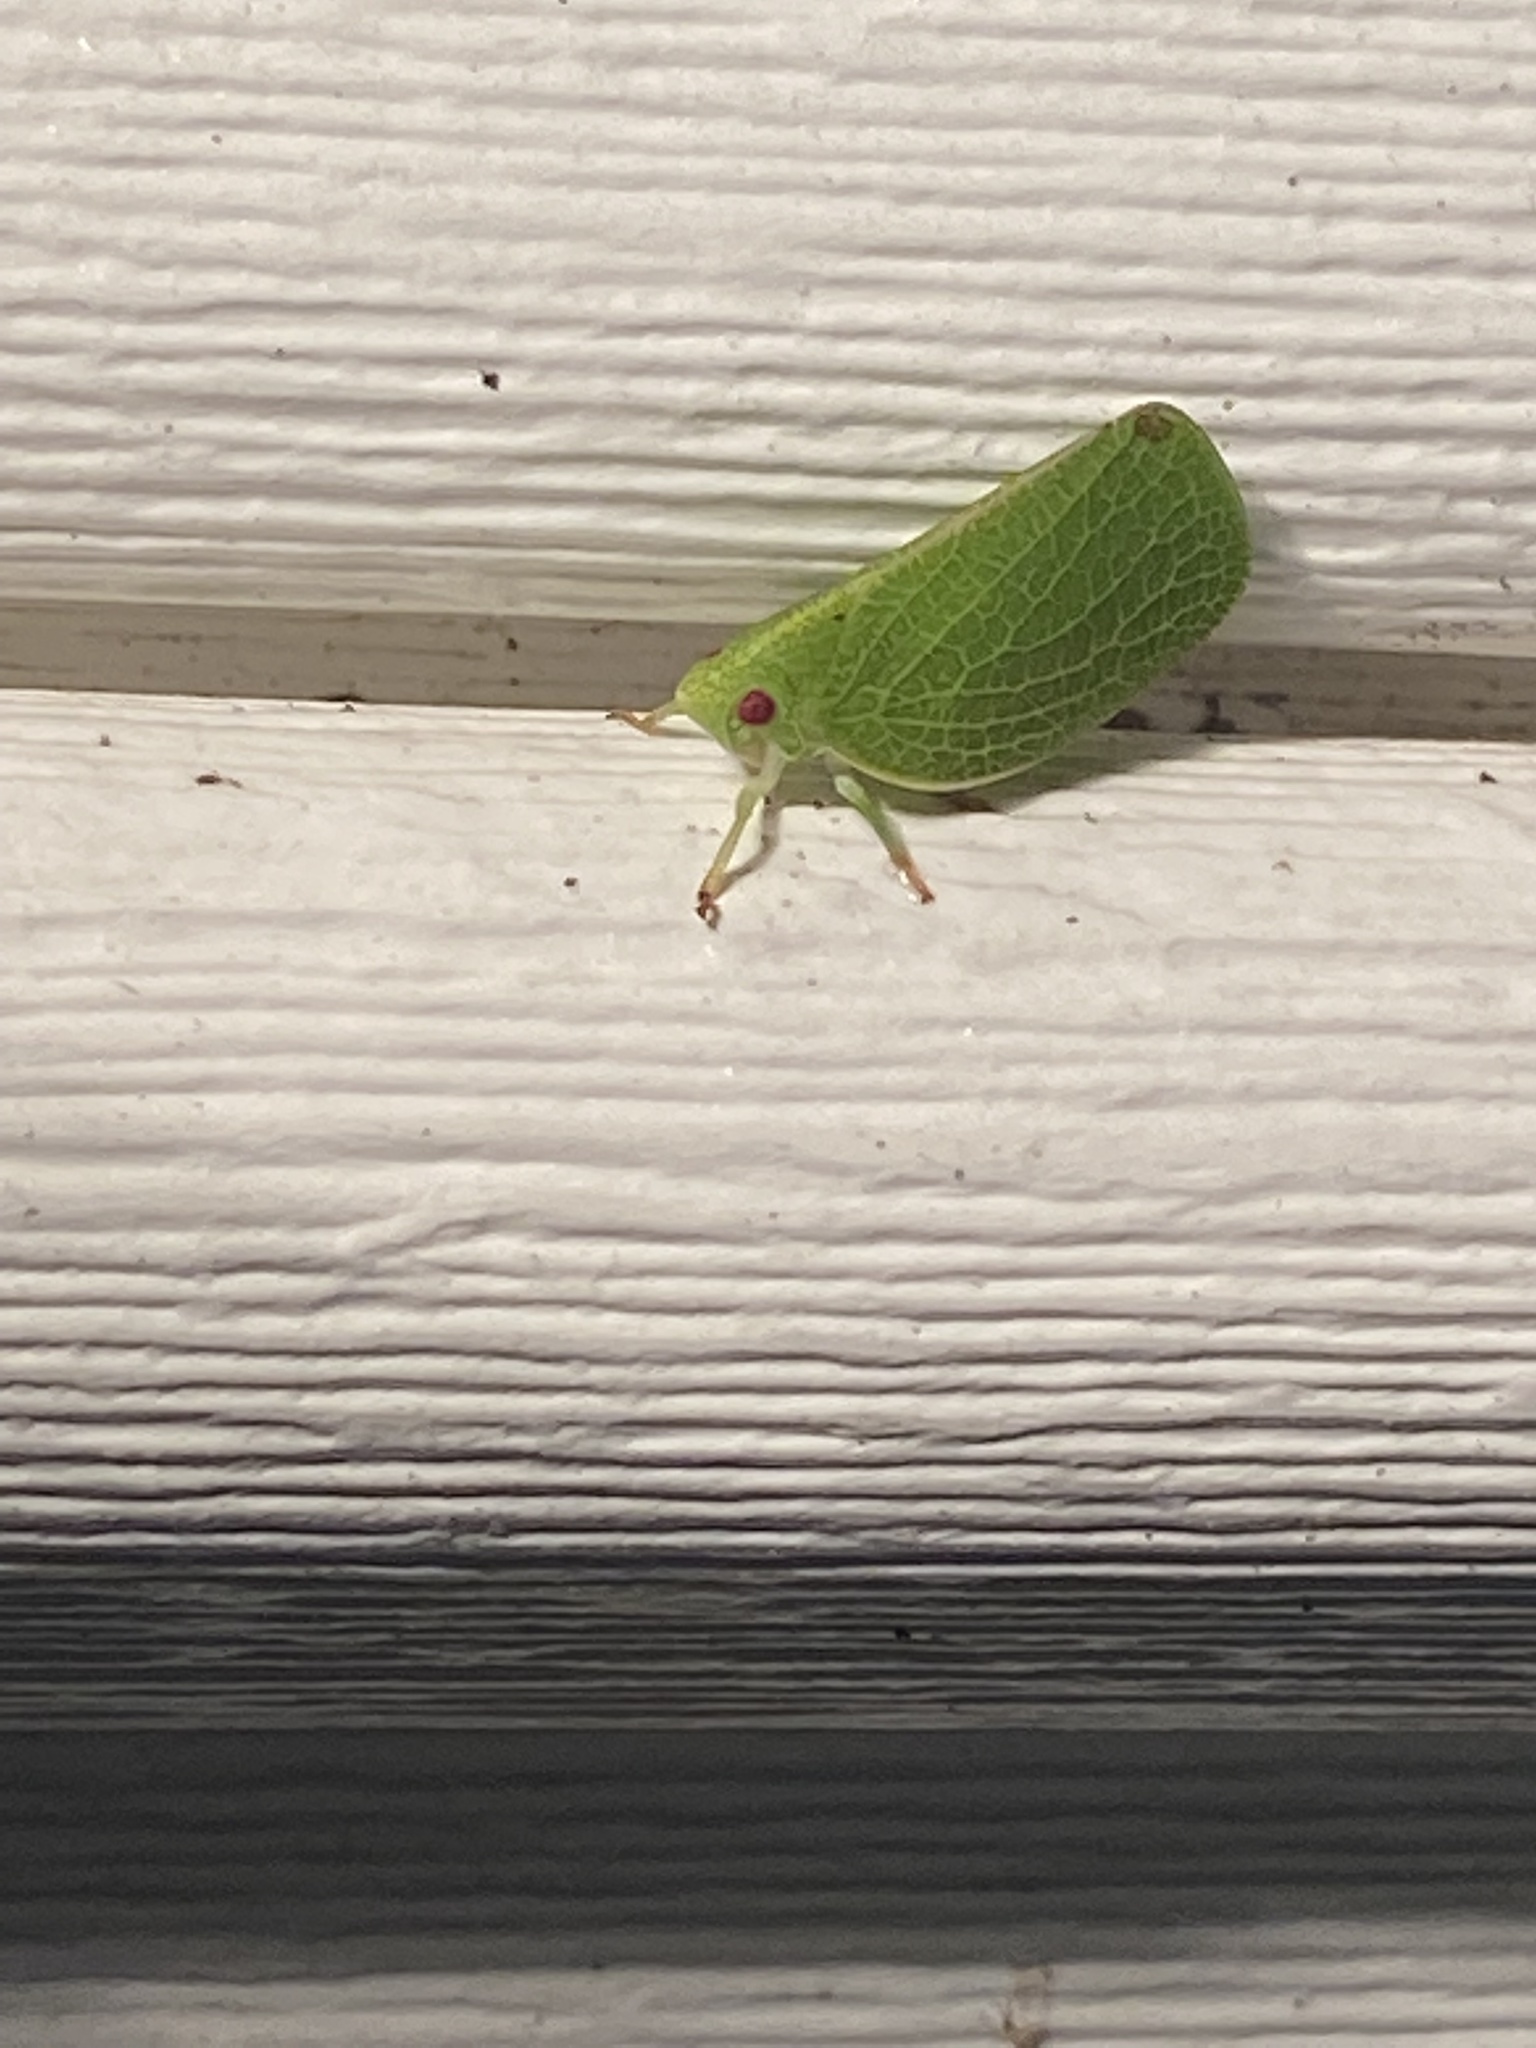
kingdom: Animalia
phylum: Arthropoda
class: Insecta
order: Hemiptera
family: Acanaloniidae
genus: Acanalonia
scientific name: Acanalonia conica
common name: Green cone-headed planthopper
